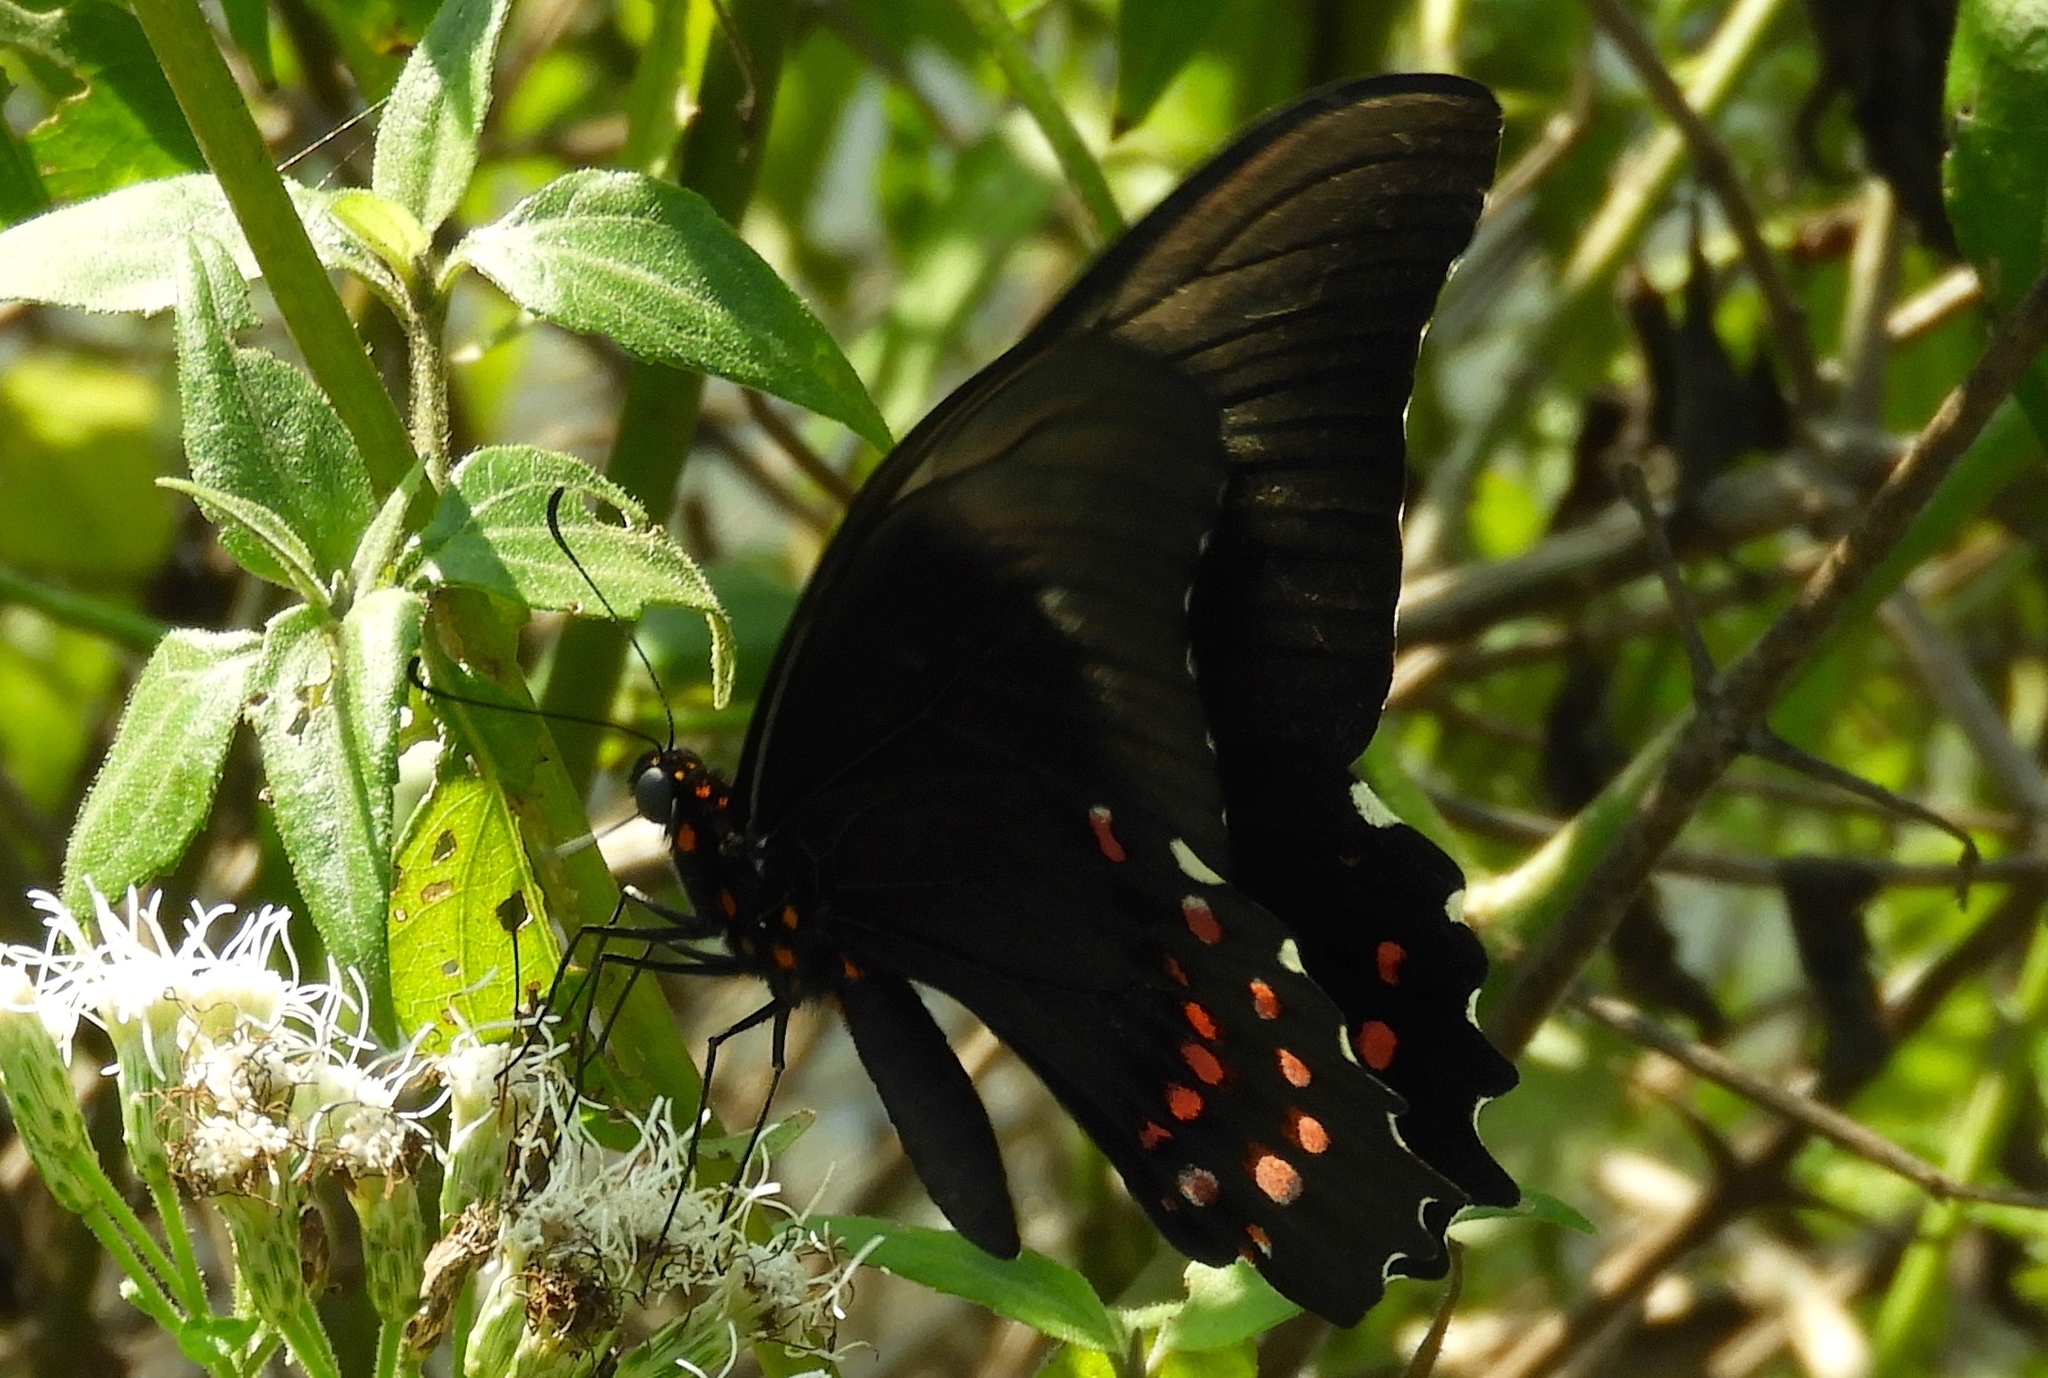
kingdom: Animalia
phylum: Arthropoda
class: Insecta
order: Lepidoptera
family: Papilionidae
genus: Heraclides
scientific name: Heraclides rogeri
